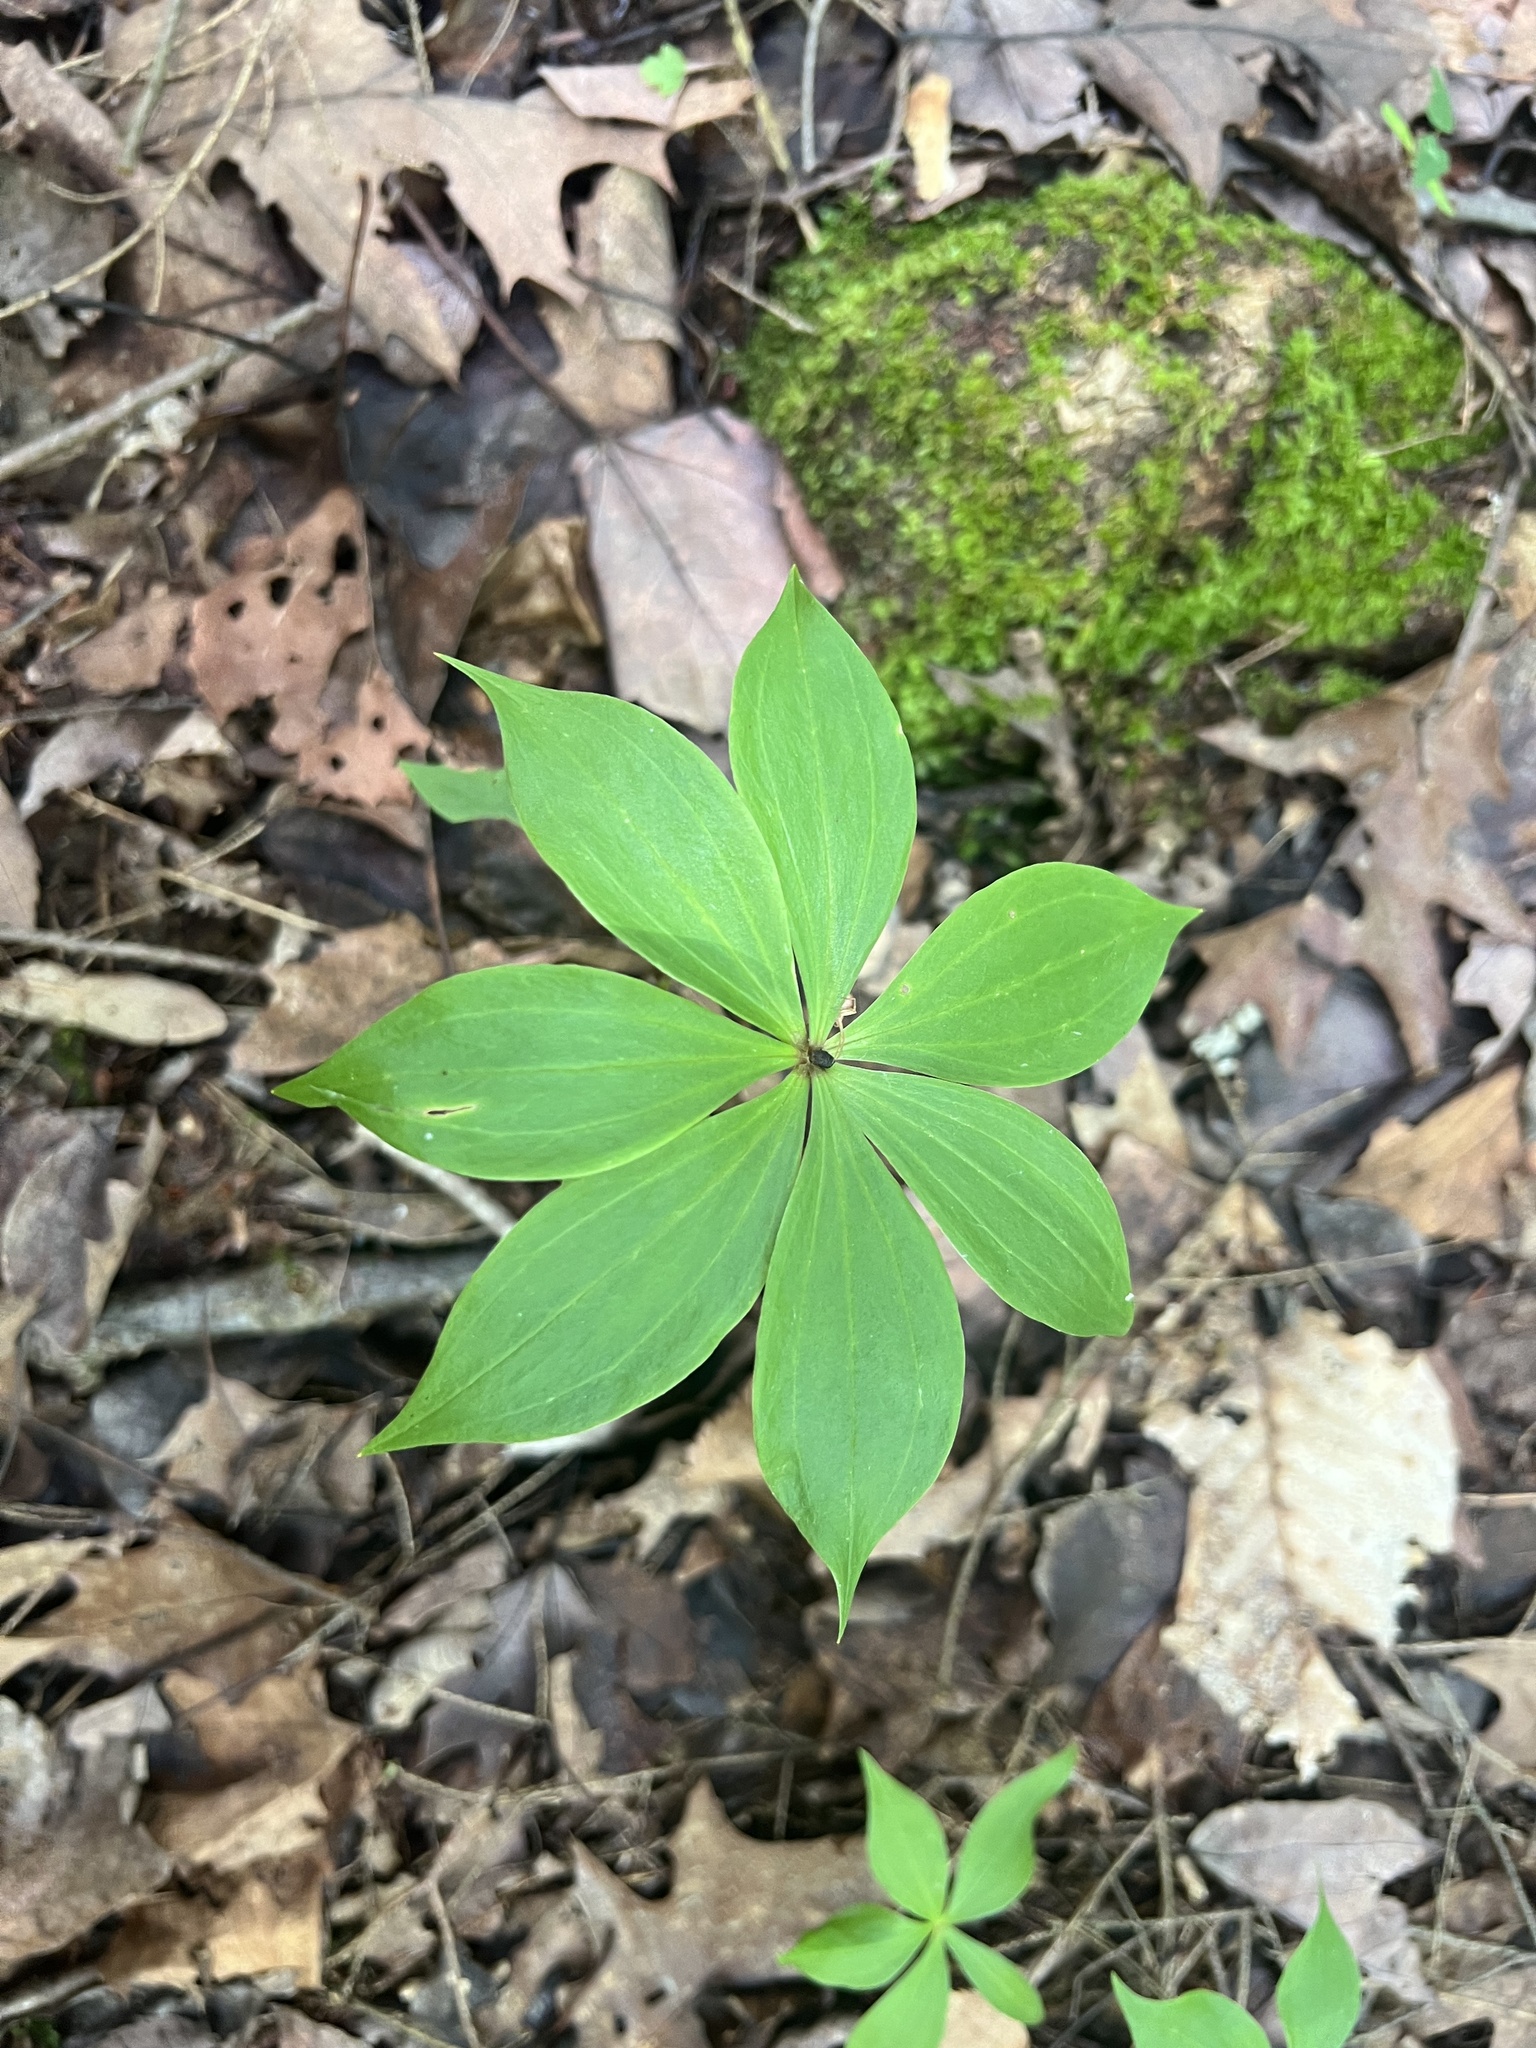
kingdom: Plantae
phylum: Tracheophyta
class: Liliopsida
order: Liliales
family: Liliaceae
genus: Medeola
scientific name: Medeola virginiana
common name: Indian cucumber-root
